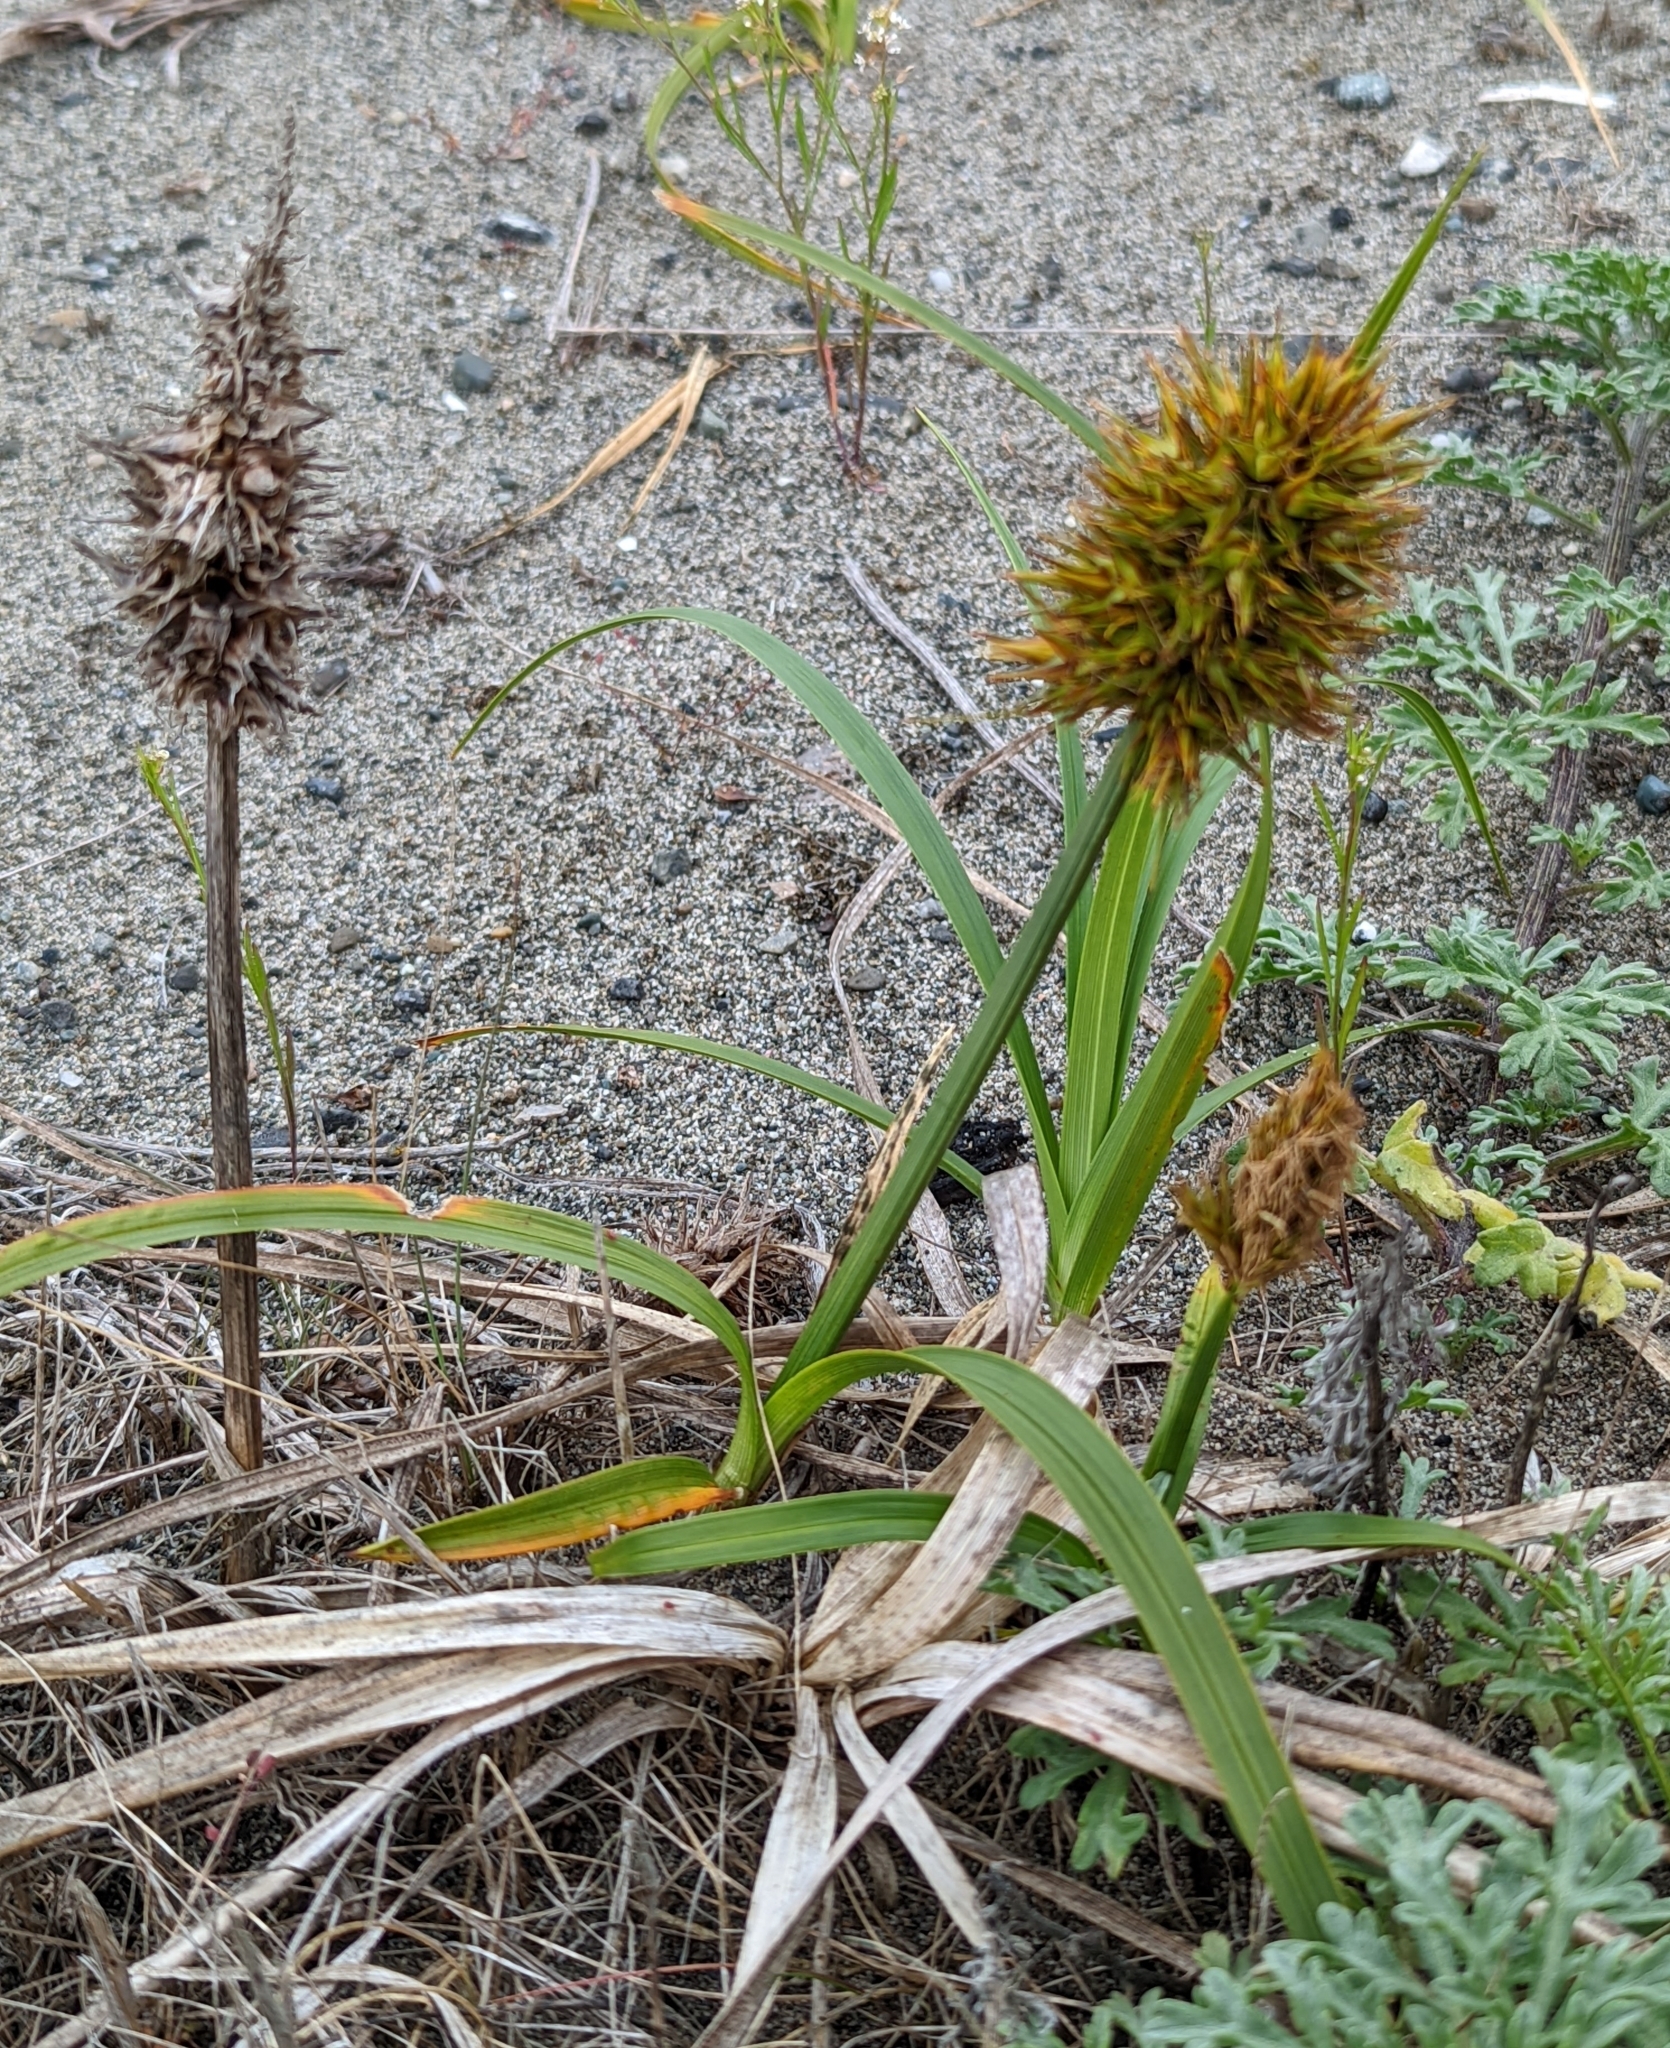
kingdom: Plantae
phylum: Tracheophyta
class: Liliopsida
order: Poales
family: Cyperaceae
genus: Carex
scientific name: Carex macrocephala
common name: Large-head sedge
